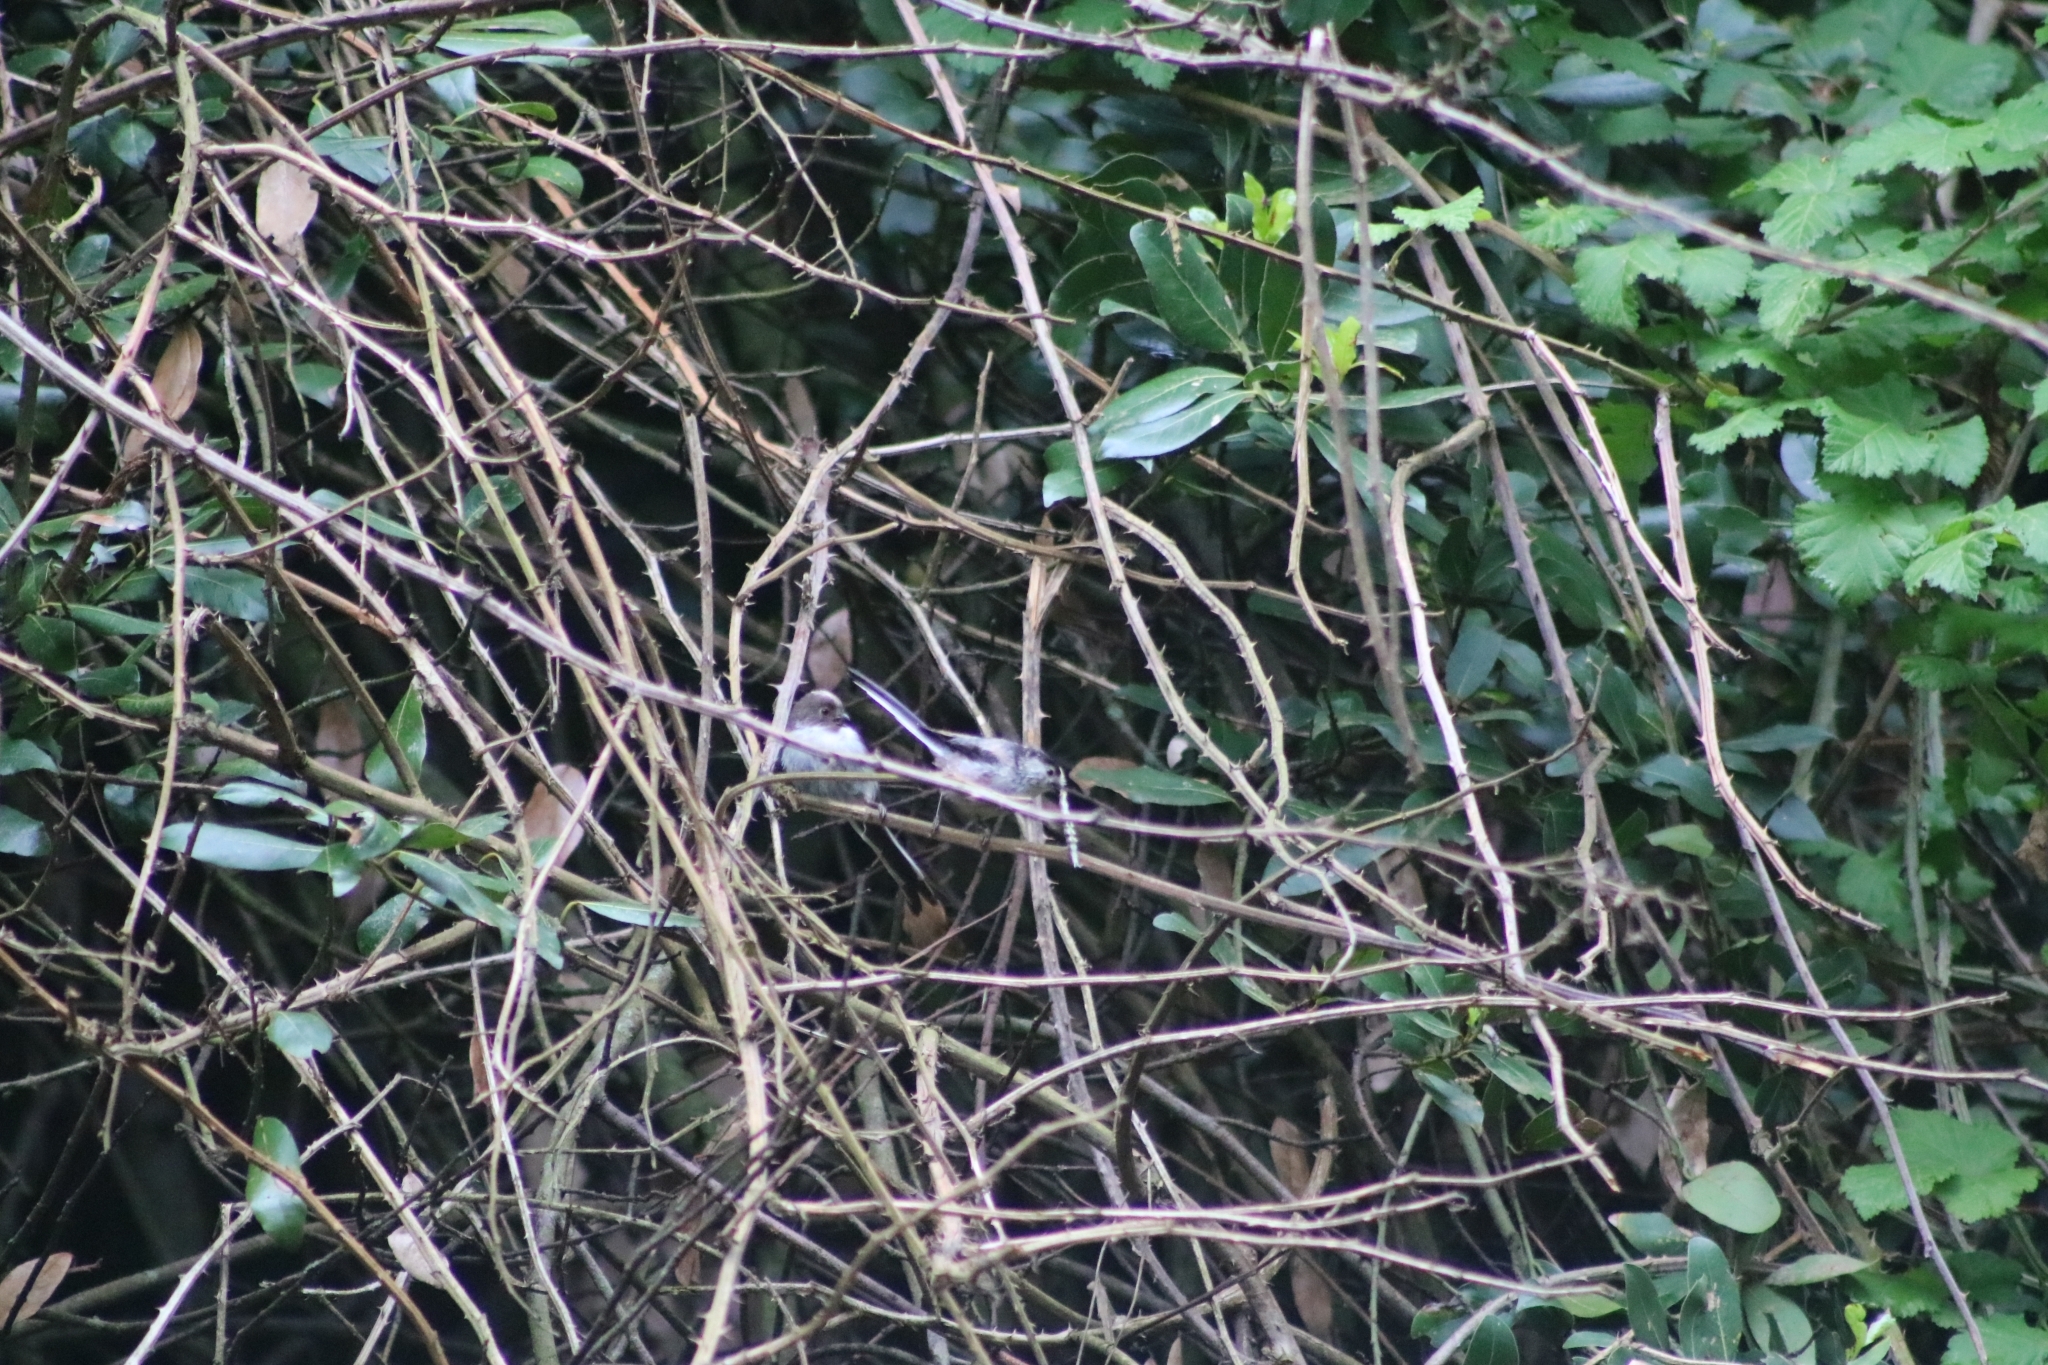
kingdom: Animalia
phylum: Chordata
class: Aves
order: Passeriformes
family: Aegithalidae
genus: Aegithalos
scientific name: Aegithalos caudatus
